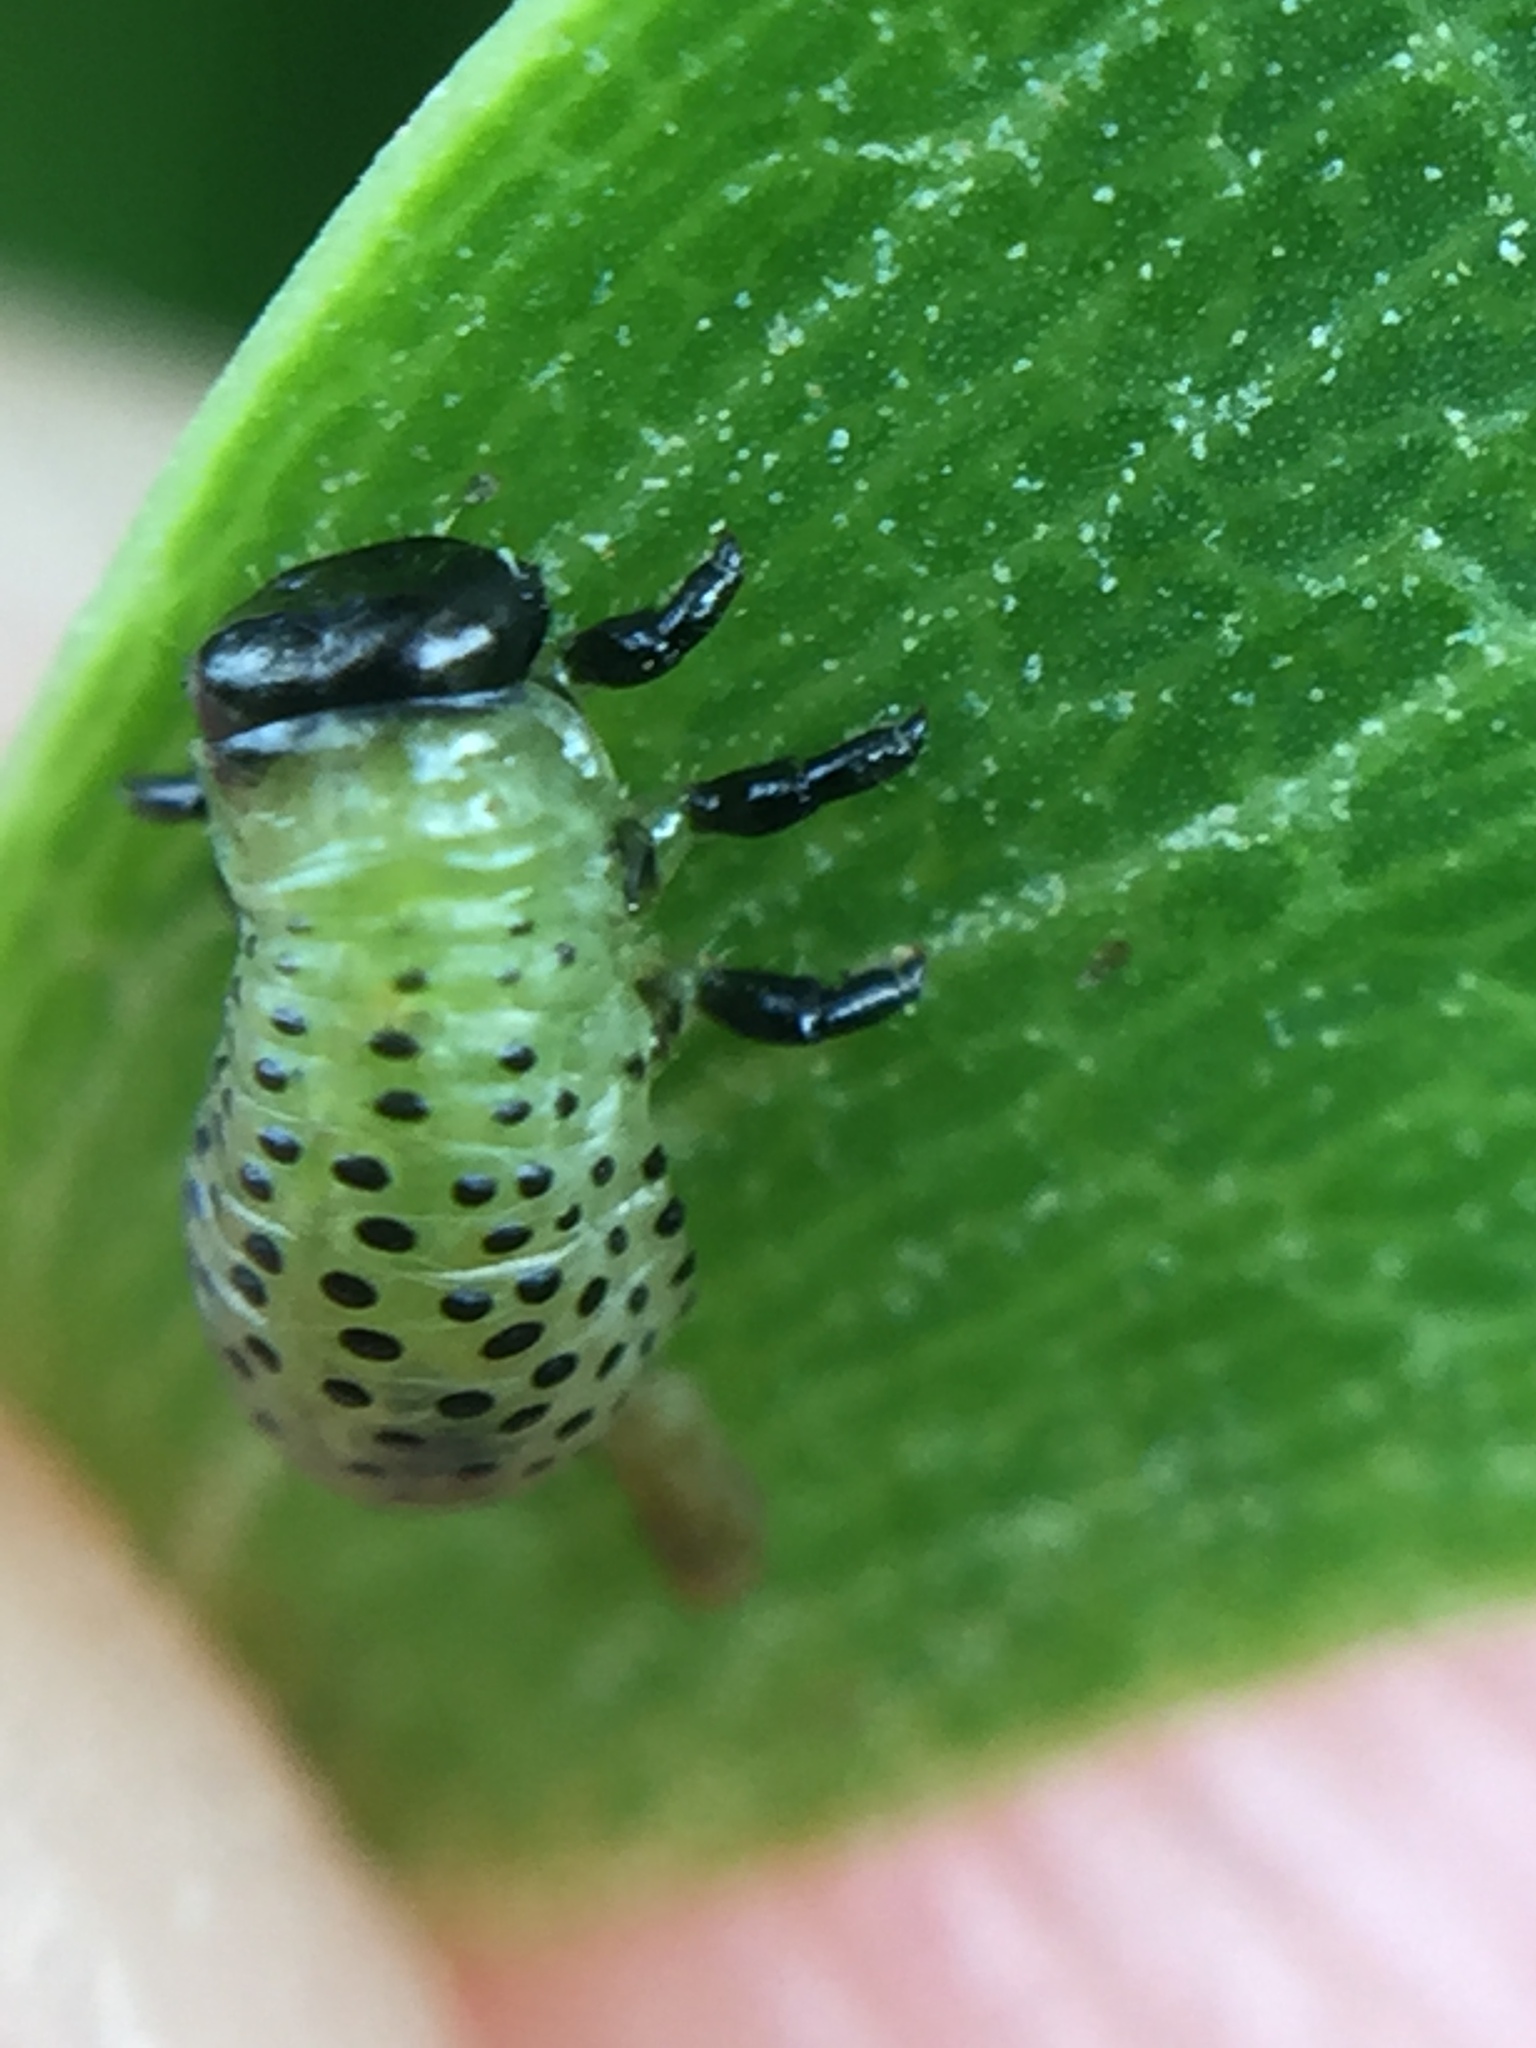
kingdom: Animalia
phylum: Arthropoda
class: Insecta
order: Coleoptera
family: Chrysomelidae
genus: Dicranosterna
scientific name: Dicranosterna
